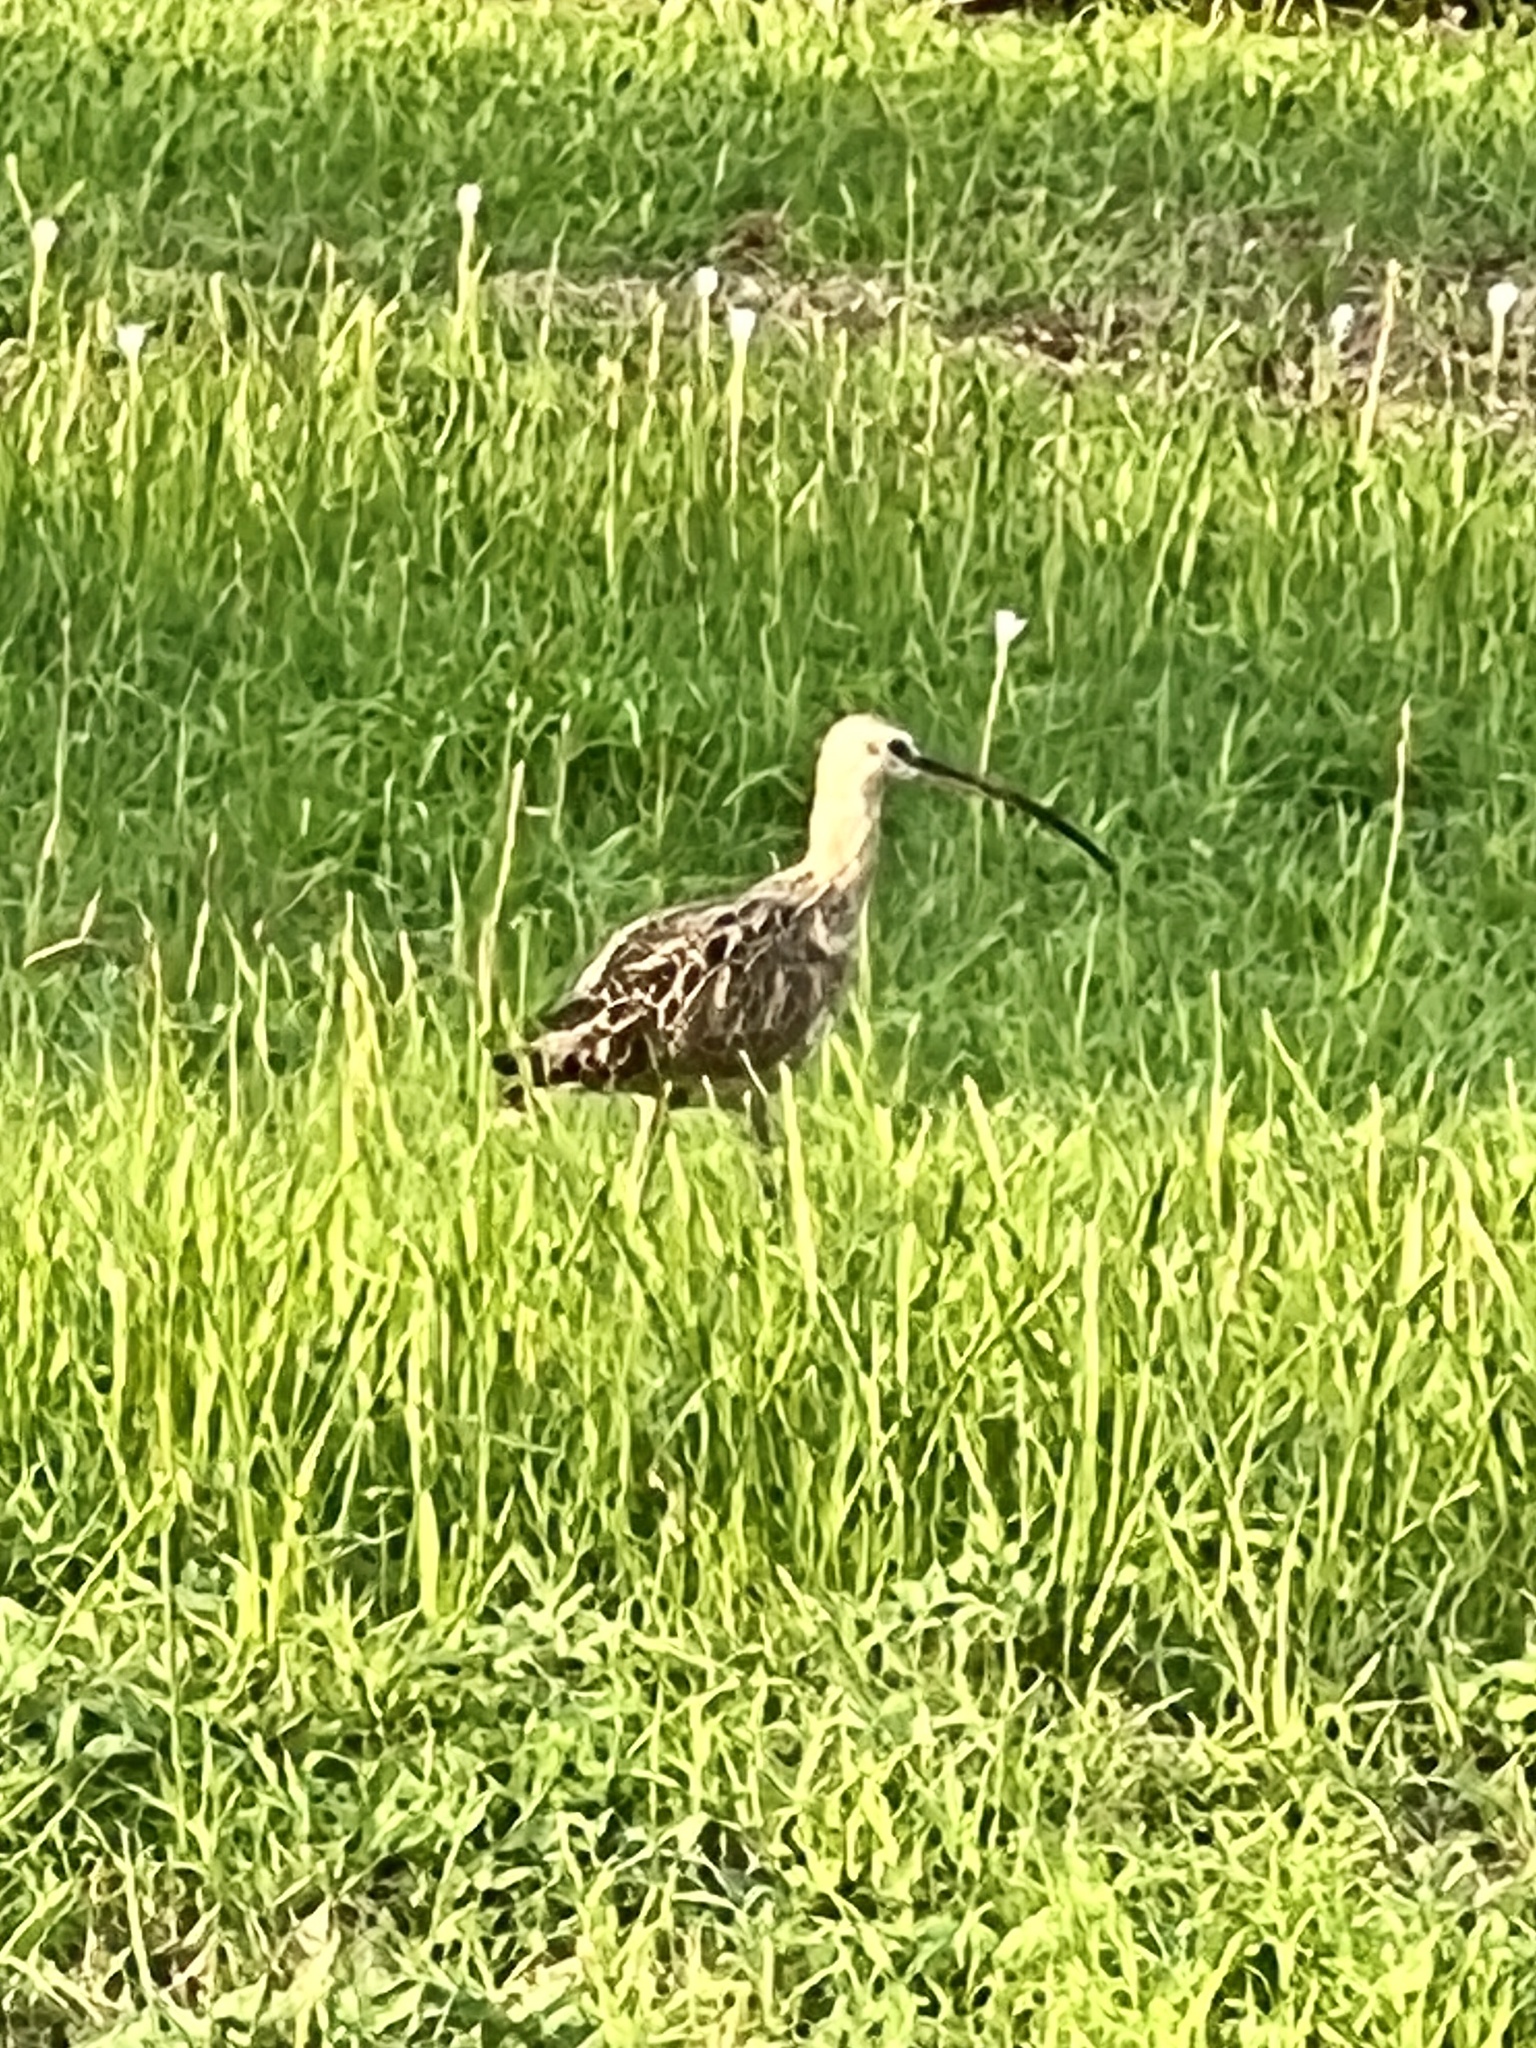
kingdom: Animalia
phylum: Chordata
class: Aves
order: Charadriiformes
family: Scolopacidae
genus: Numenius
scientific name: Numenius americanus
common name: Long-billed curlew
